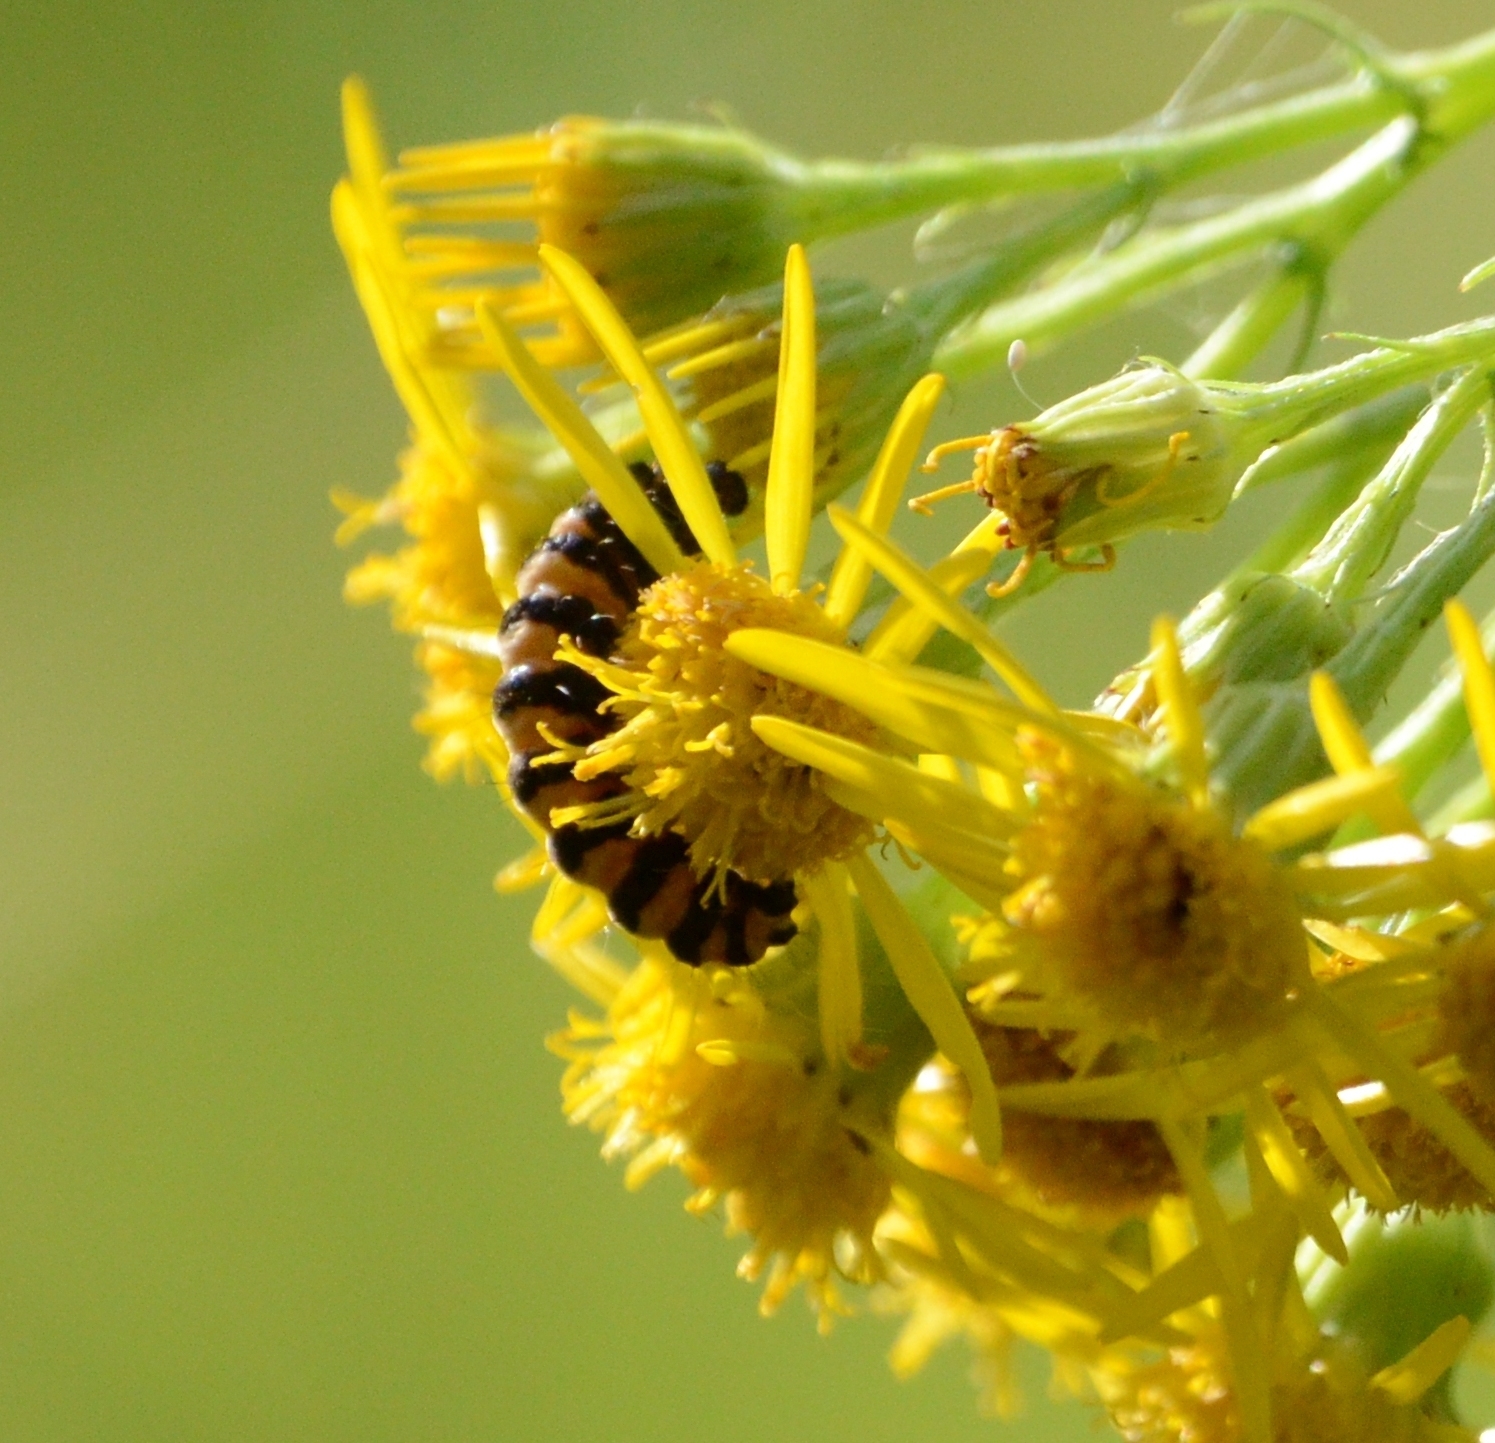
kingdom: Animalia
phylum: Arthropoda
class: Insecta
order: Lepidoptera
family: Erebidae
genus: Tyria
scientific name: Tyria jacobaeae
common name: Cinnabar
